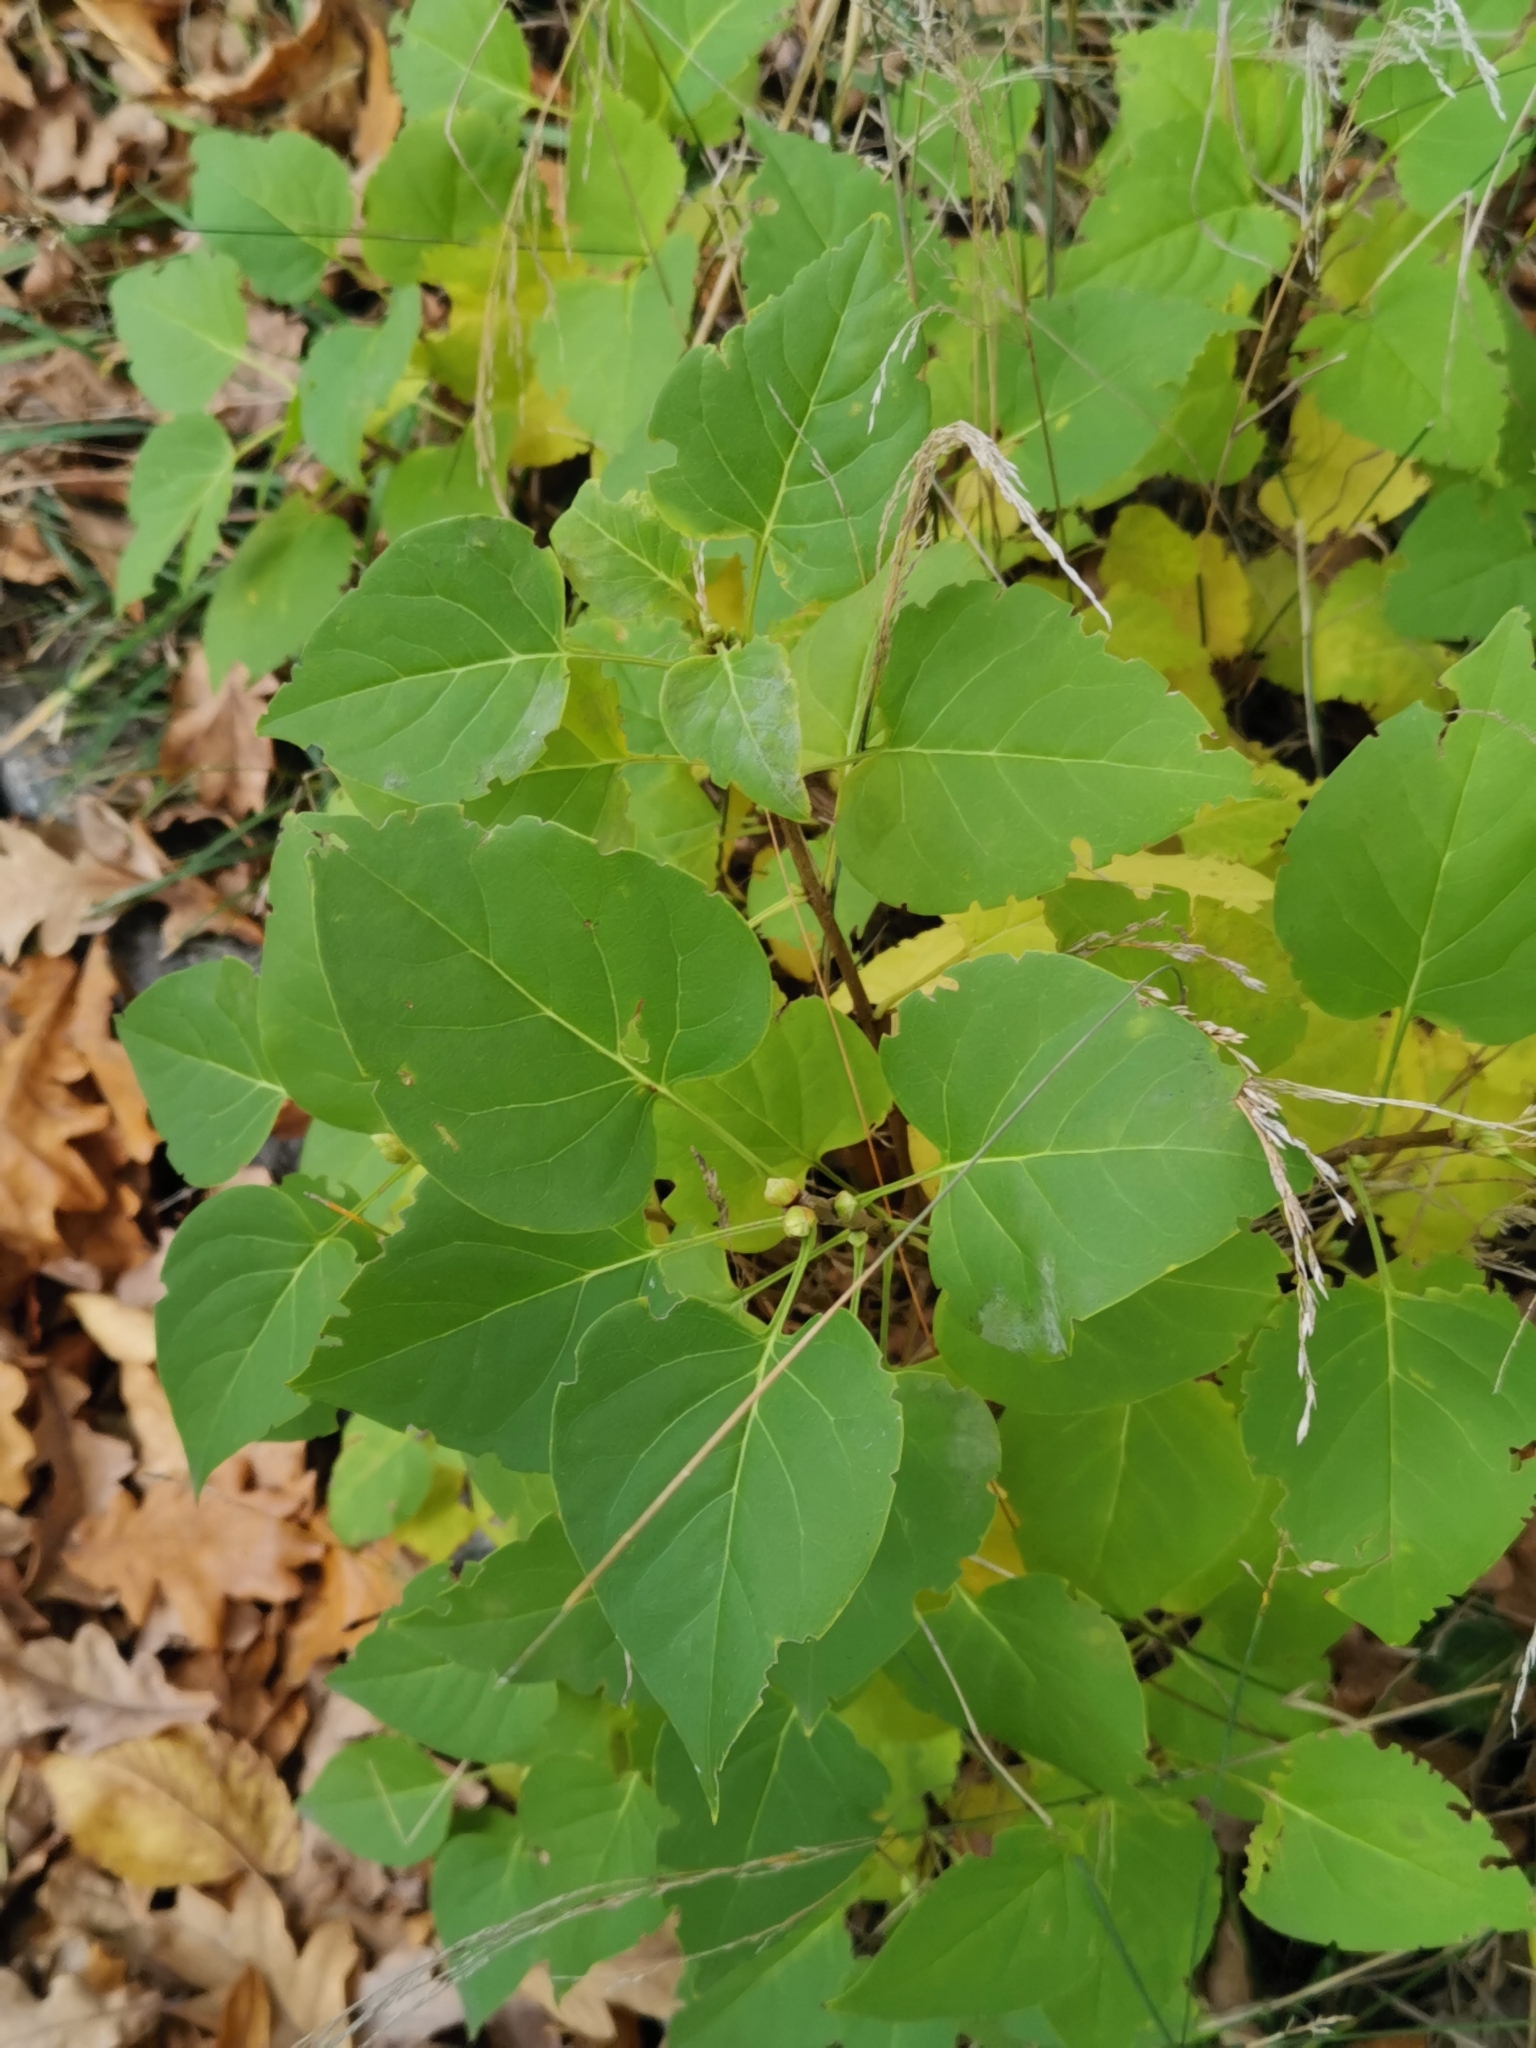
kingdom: Plantae
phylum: Tracheophyta
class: Magnoliopsida
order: Lamiales
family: Oleaceae
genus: Syringa
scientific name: Syringa vulgaris
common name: Common lilac
